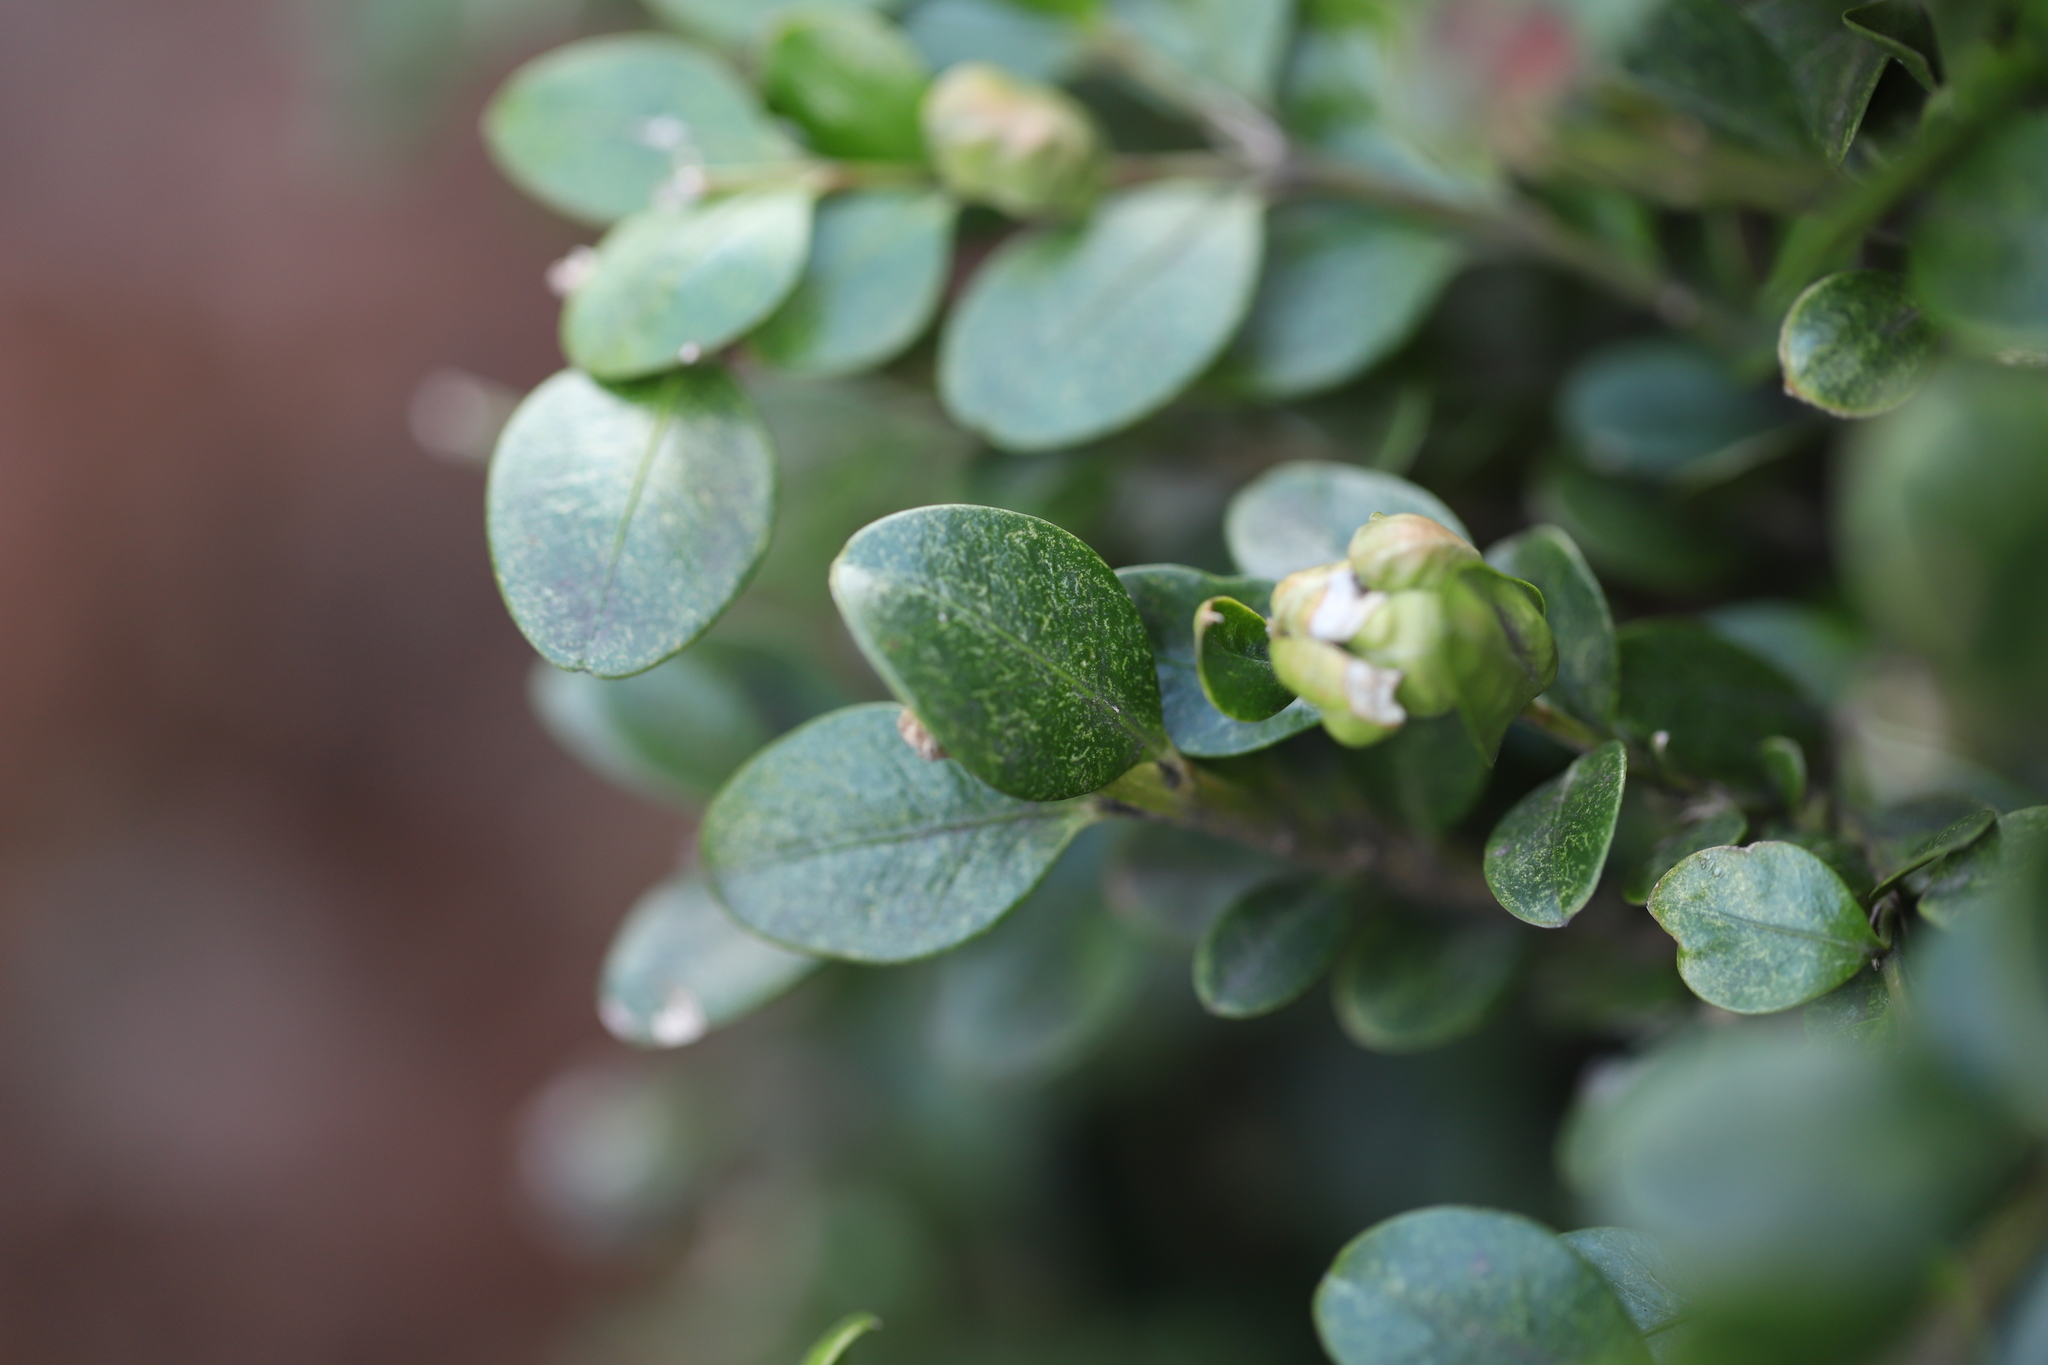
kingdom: Animalia
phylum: Arthropoda
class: Insecta
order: Hemiptera
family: Psyllidae
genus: Psylla
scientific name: Psylla buxi
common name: Boxwood psyllid
